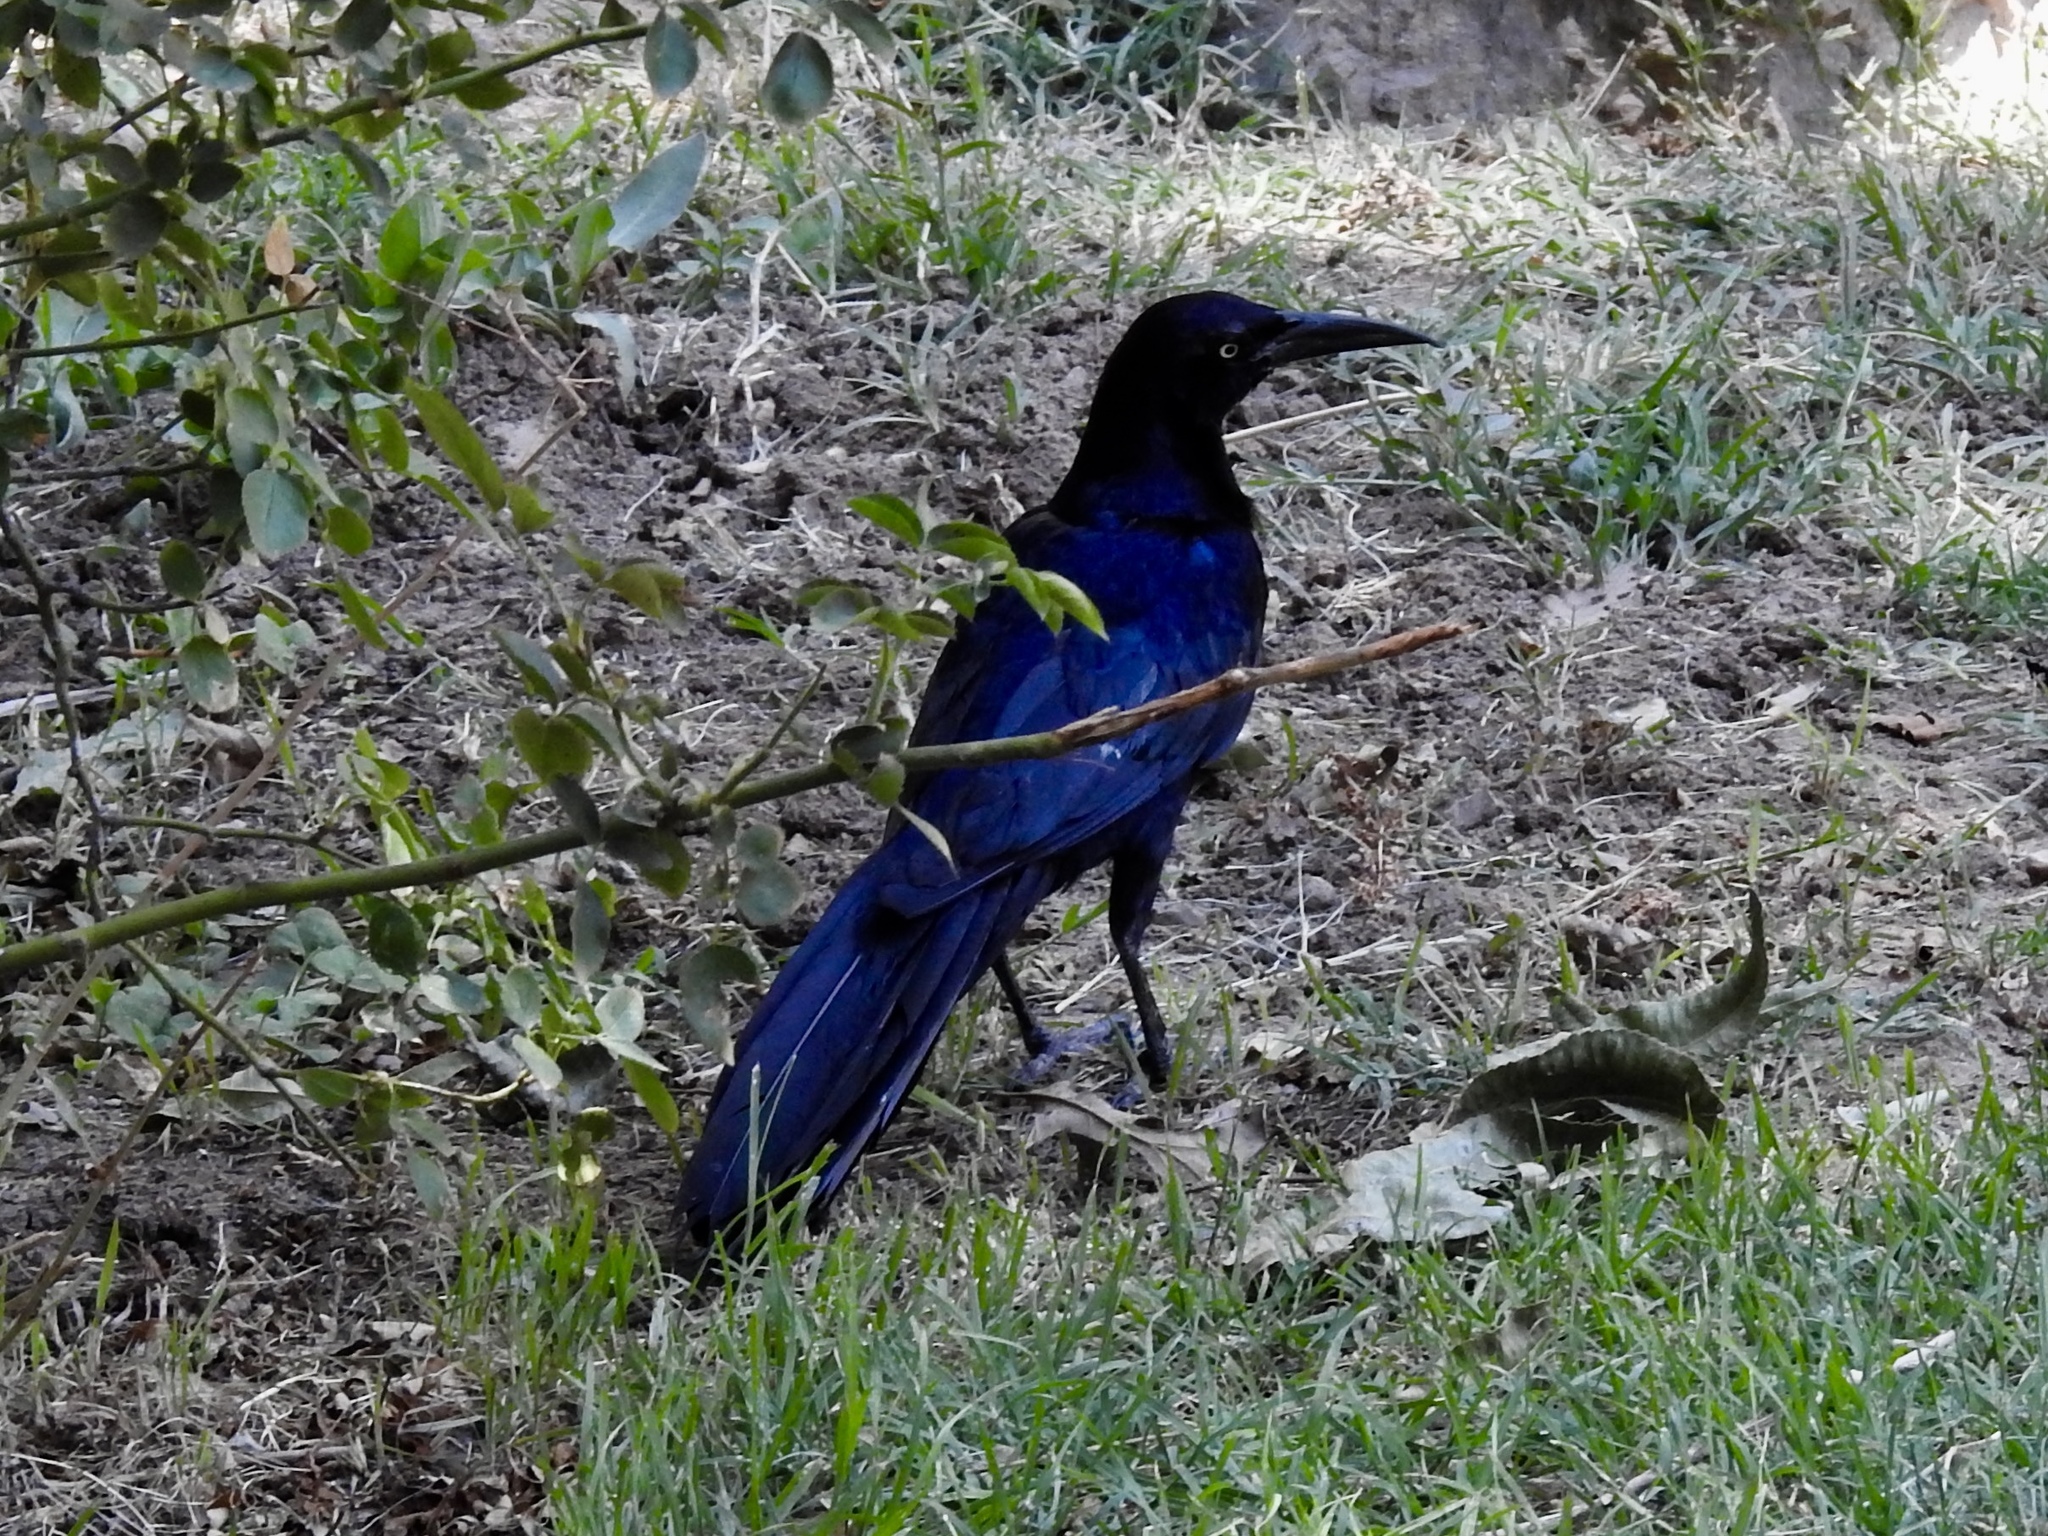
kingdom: Animalia
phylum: Chordata
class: Aves
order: Passeriformes
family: Icteridae
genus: Quiscalus
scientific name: Quiscalus mexicanus
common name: Great-tailed grackle
